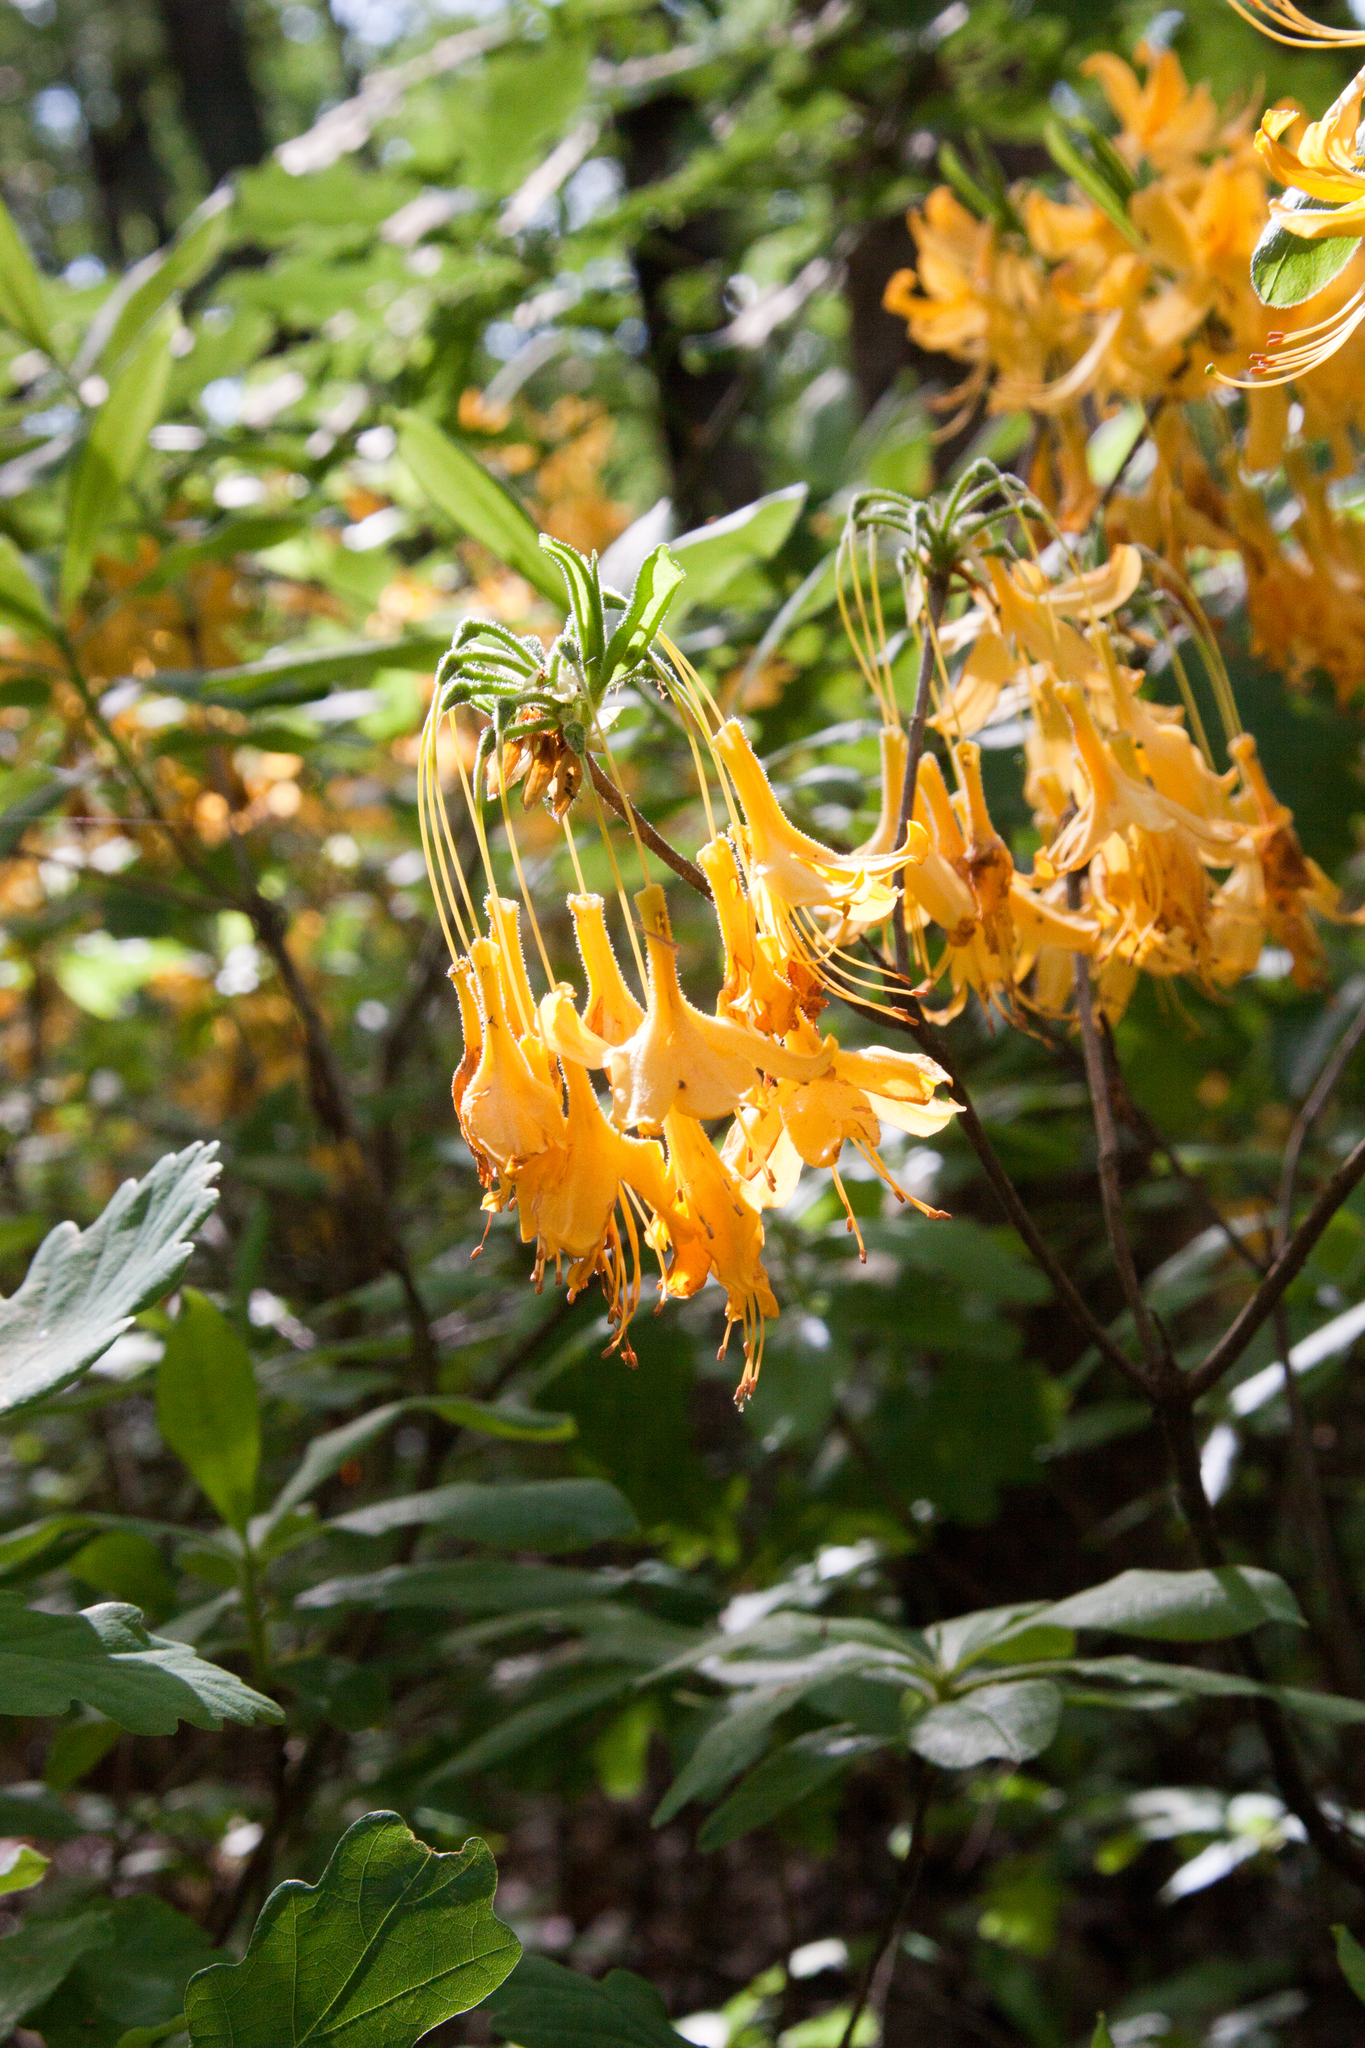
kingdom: Plantae
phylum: Tracheophyta
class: Magnoliopsida
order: Ericales
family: Ericaceae
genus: Rhododendron
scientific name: Rhododendron luteum
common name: Yellow azalea
